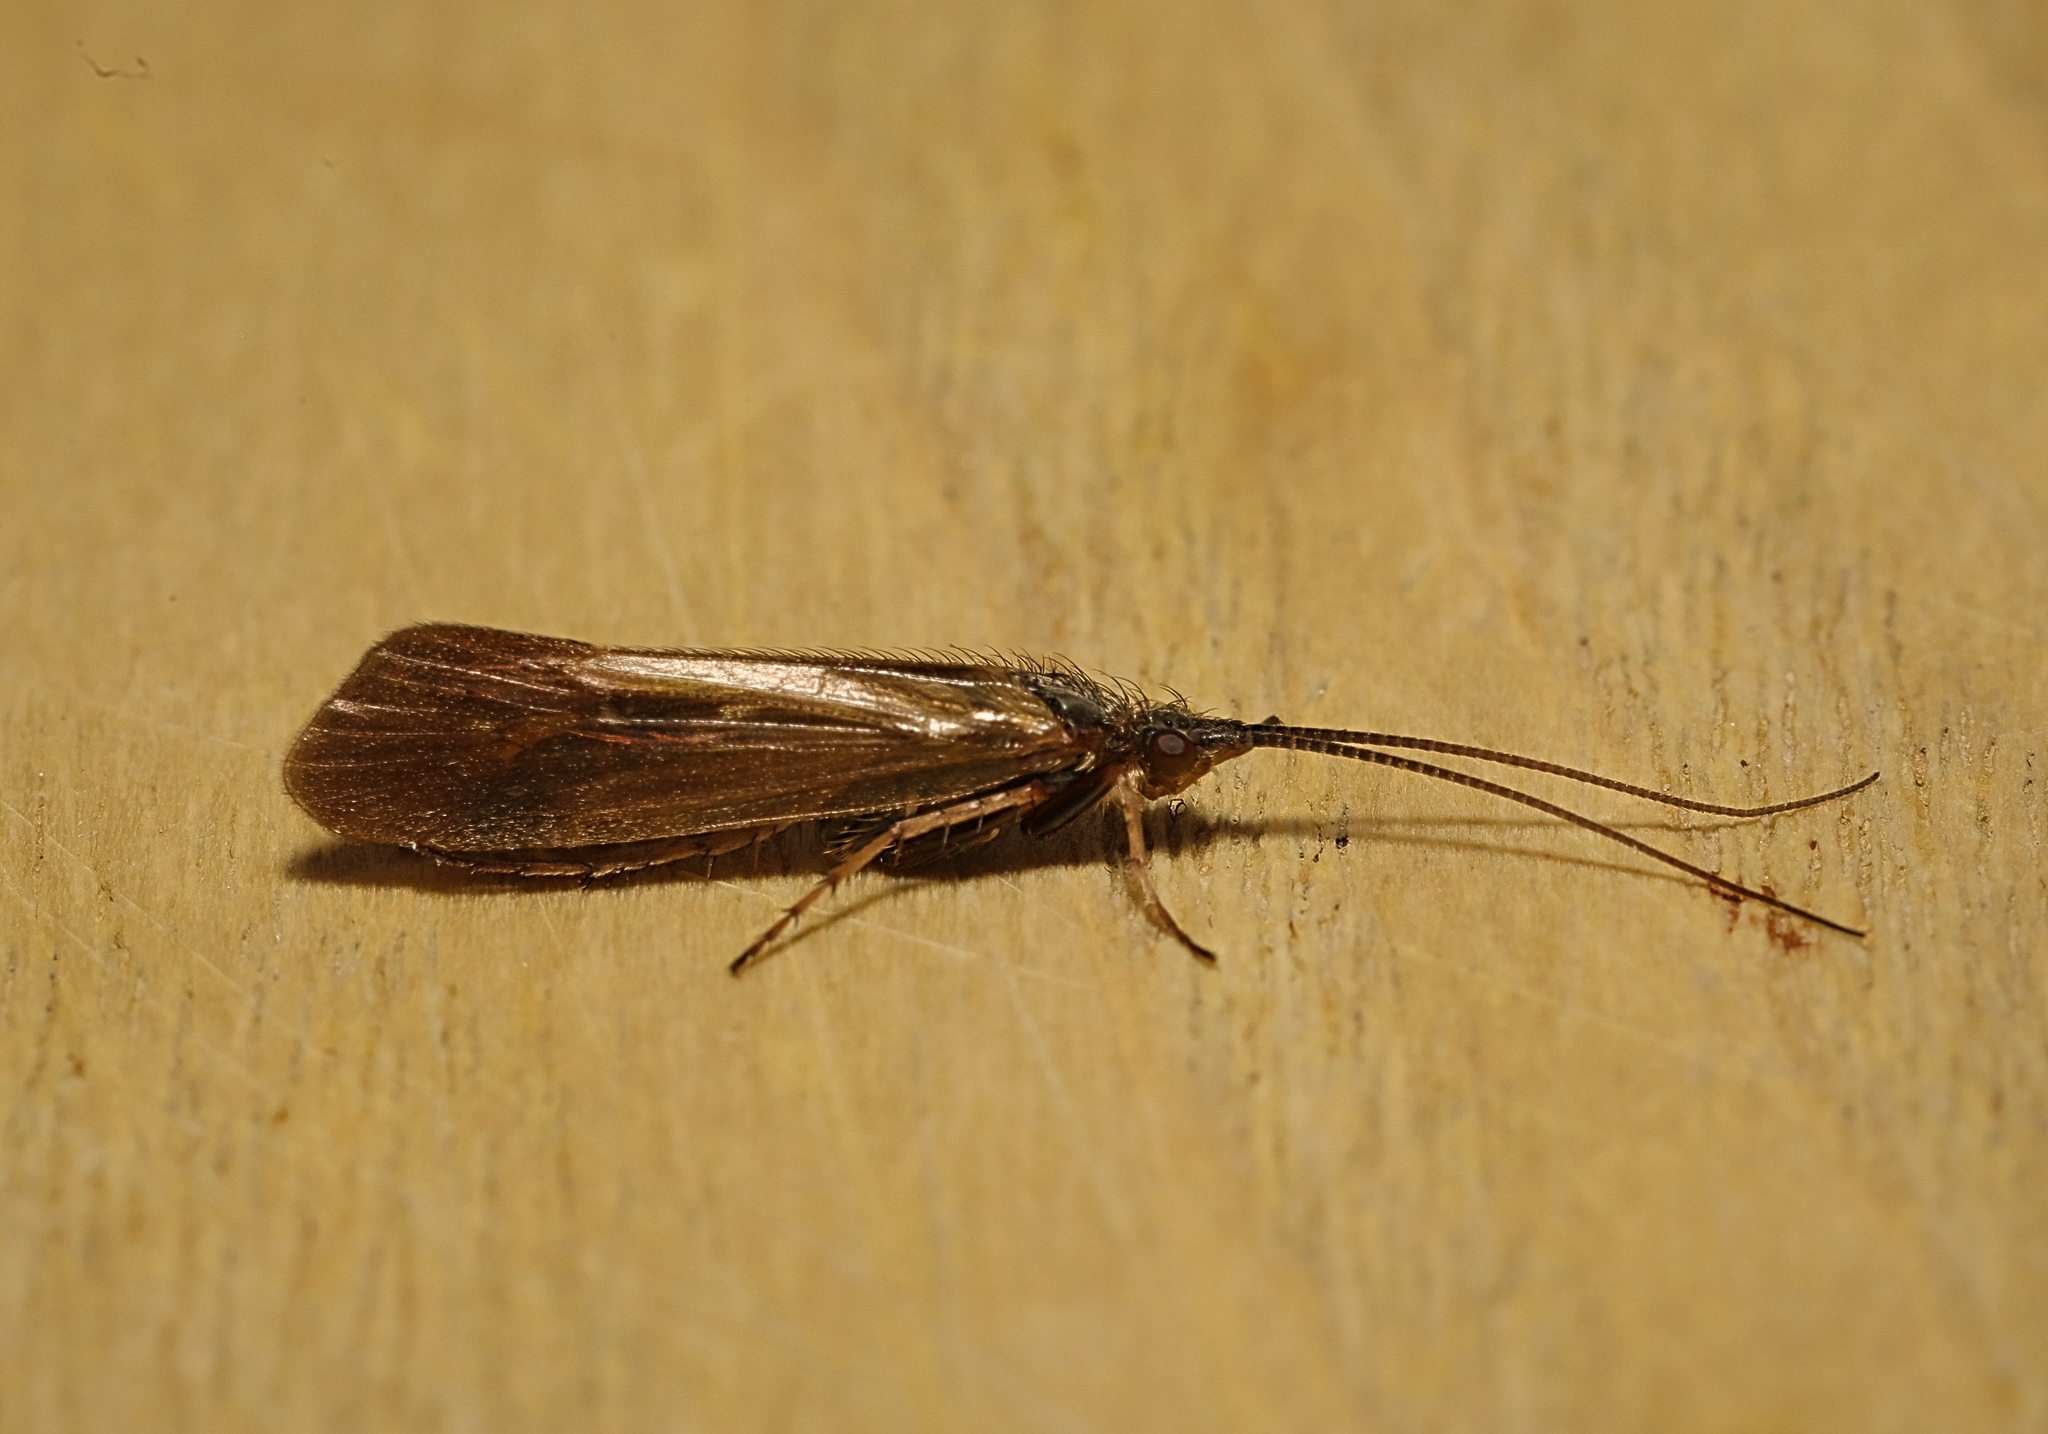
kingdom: Animalia
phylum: Arthropoda
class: Insecta
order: Trichoptera
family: Limnephilidae
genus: Limnephilus
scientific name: Limnephilus auricula
